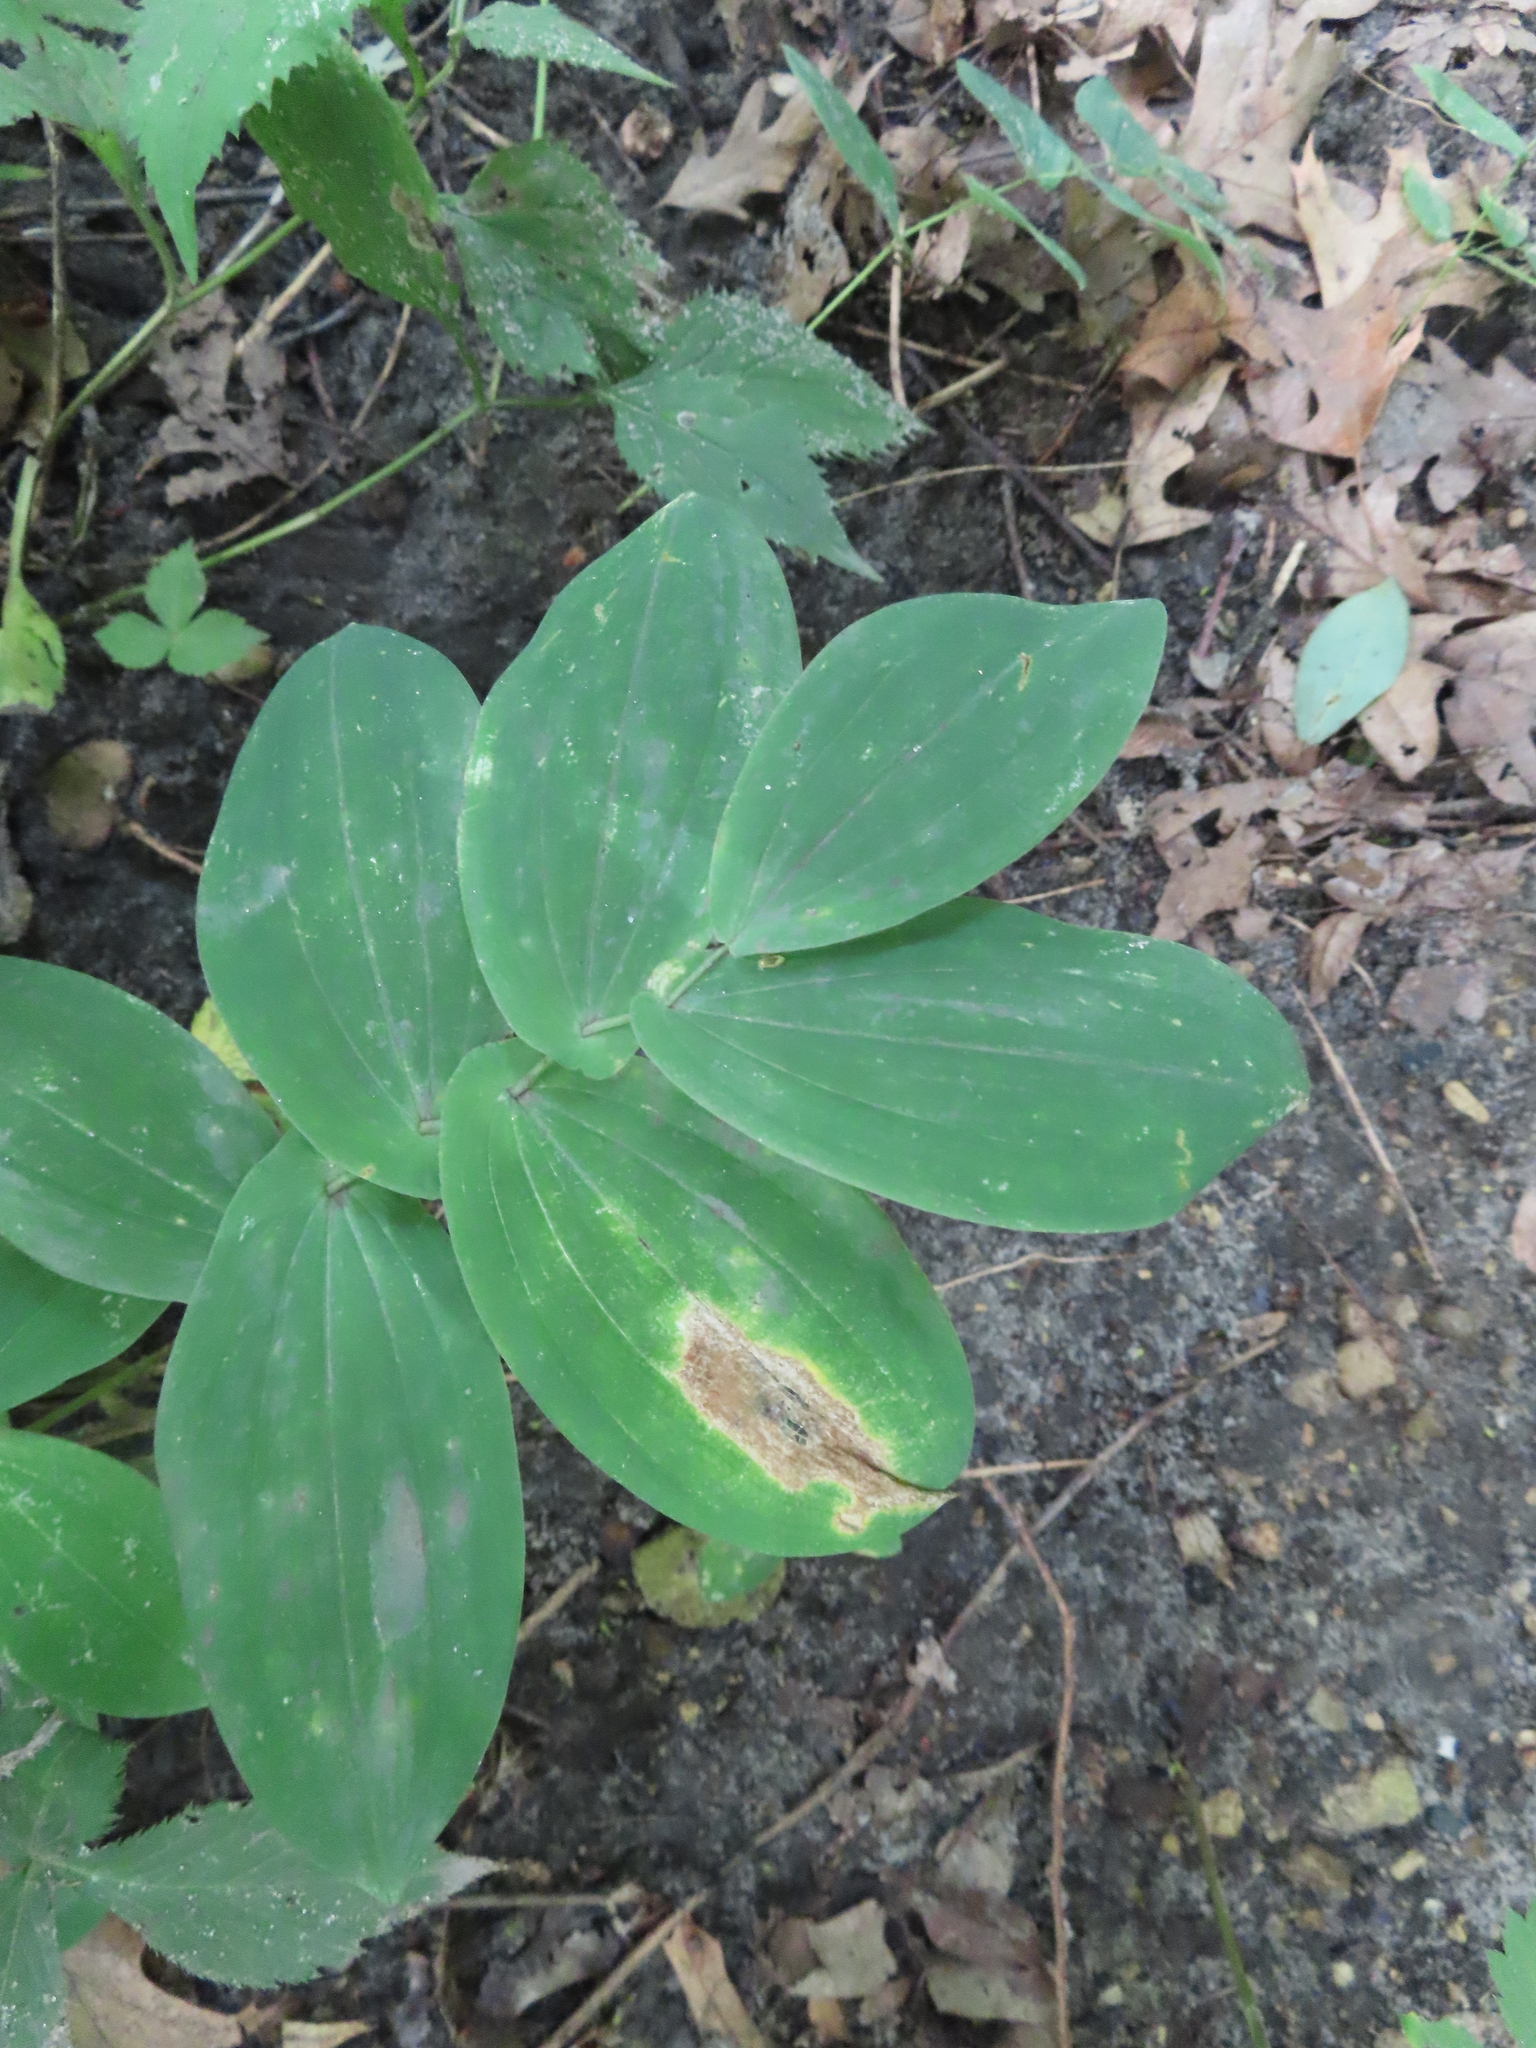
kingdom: Plantae
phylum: Tracheophyta
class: Liliopsida
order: Liliales
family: Colchicaceae
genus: Uvularia
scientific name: Uvularia grandiflora
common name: Bellwort
